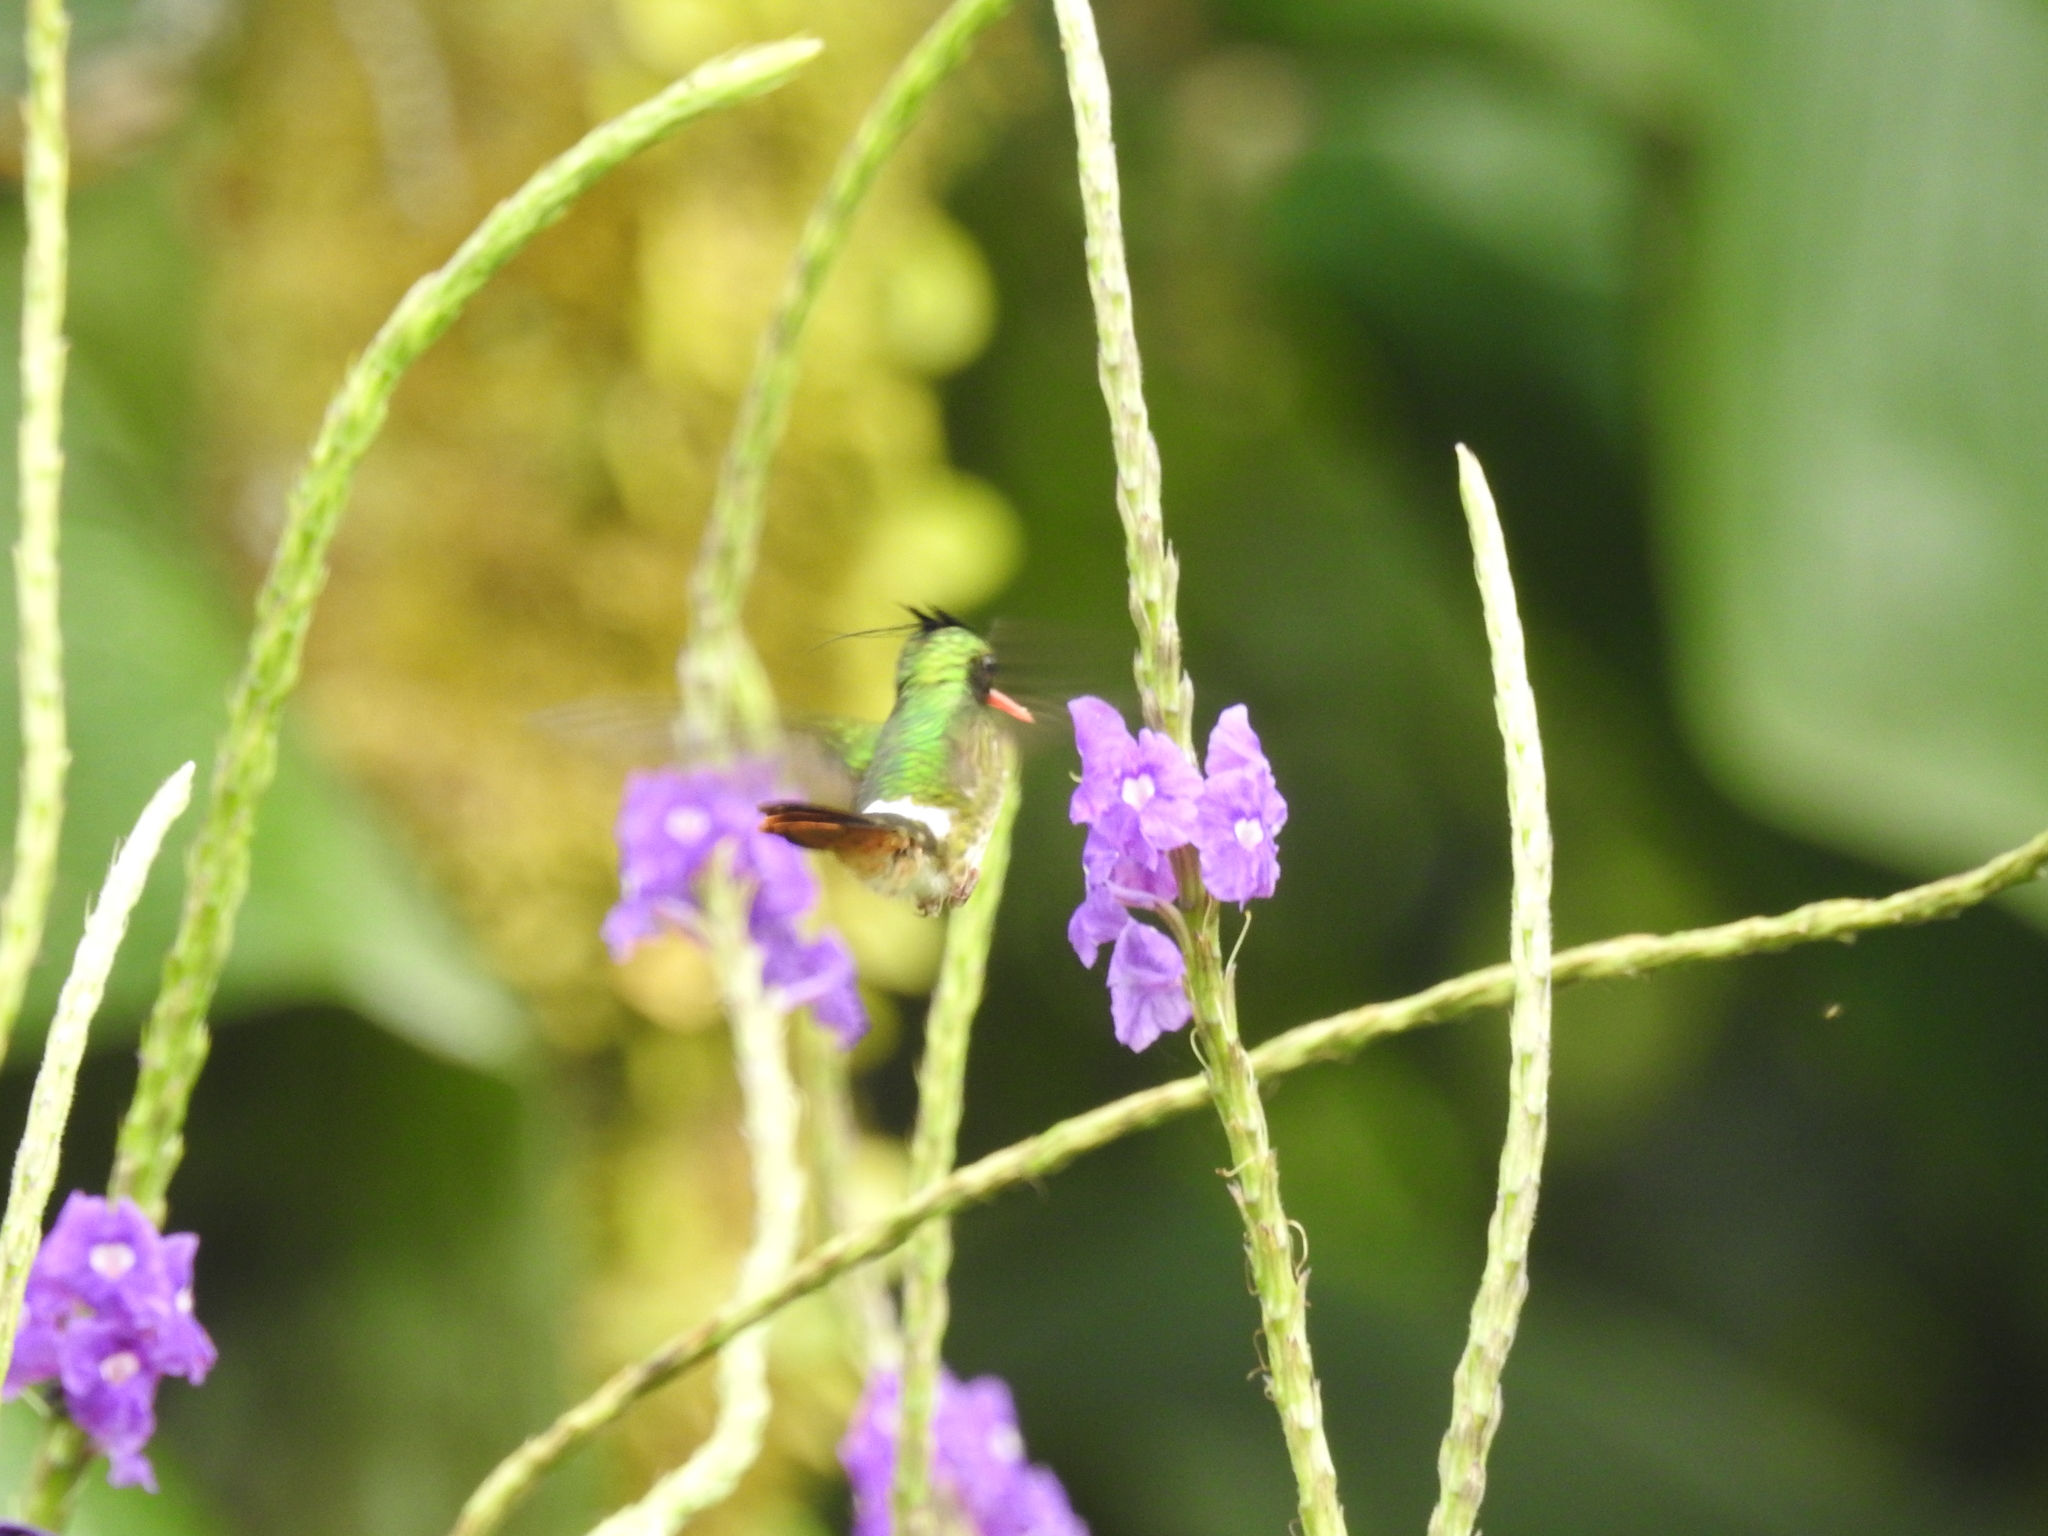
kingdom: Animalia
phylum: Chordata
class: Aves
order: Apodiformes
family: Trochilidae
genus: Lophornis
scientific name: Lophornis helenae
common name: Black-crested coquette
